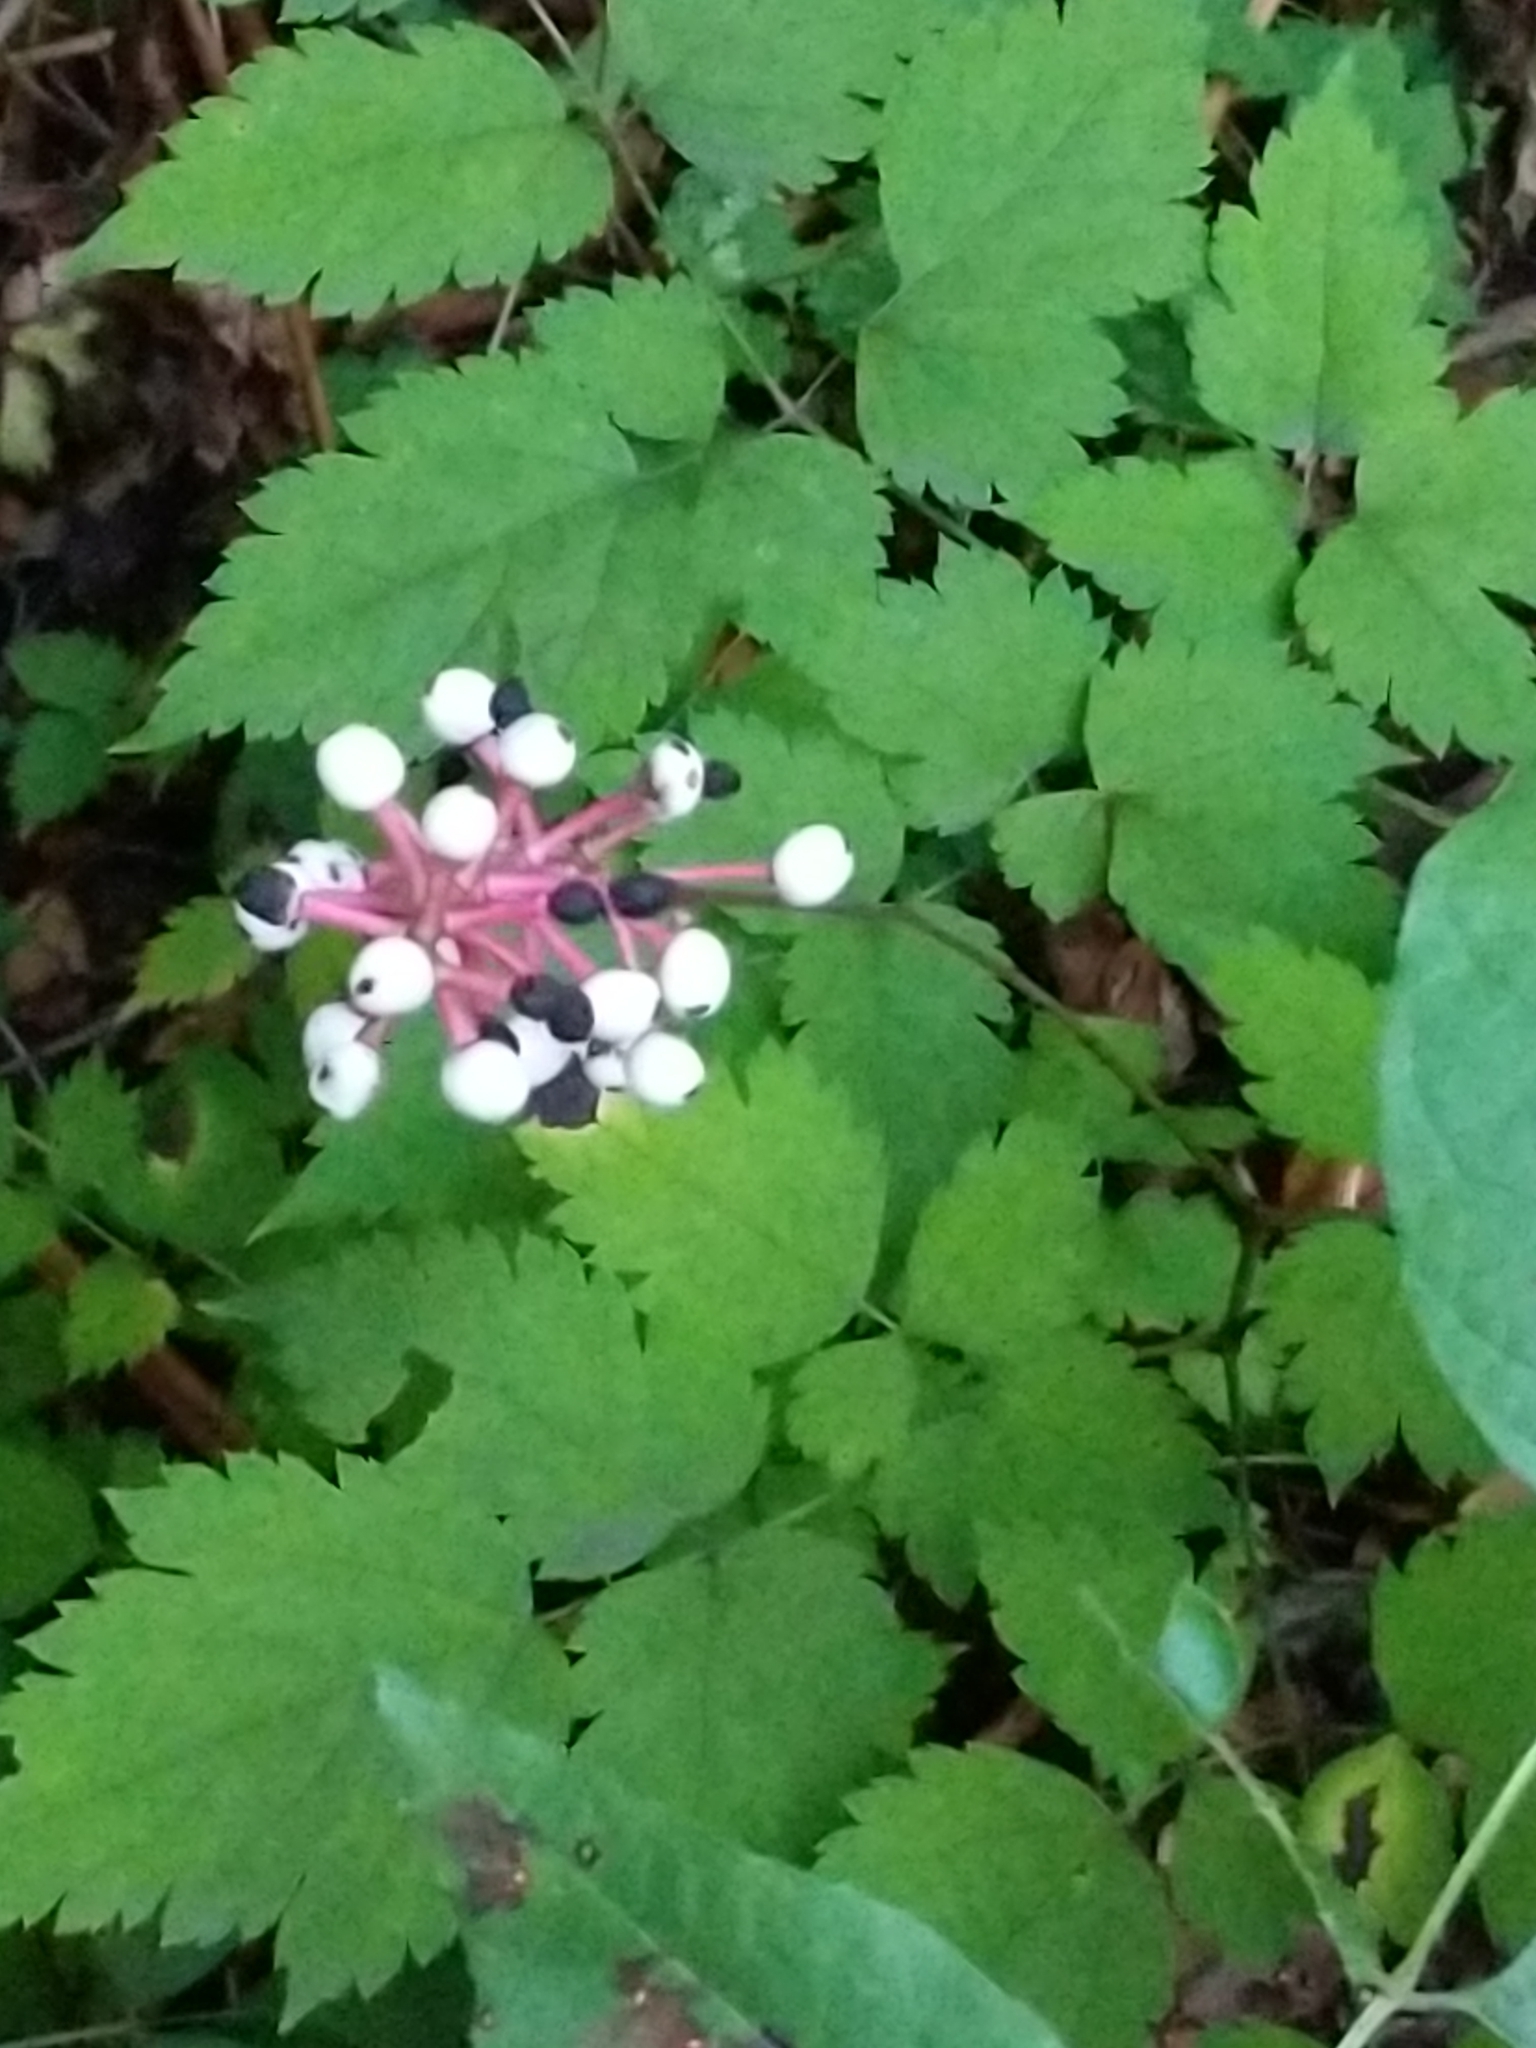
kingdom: Plantae
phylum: Tracheophyta
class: Magnoliopsida
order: Ranunculales
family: Ranunculaceae
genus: Actaea
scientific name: Actaea pachypoda
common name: Doll's-eyes
